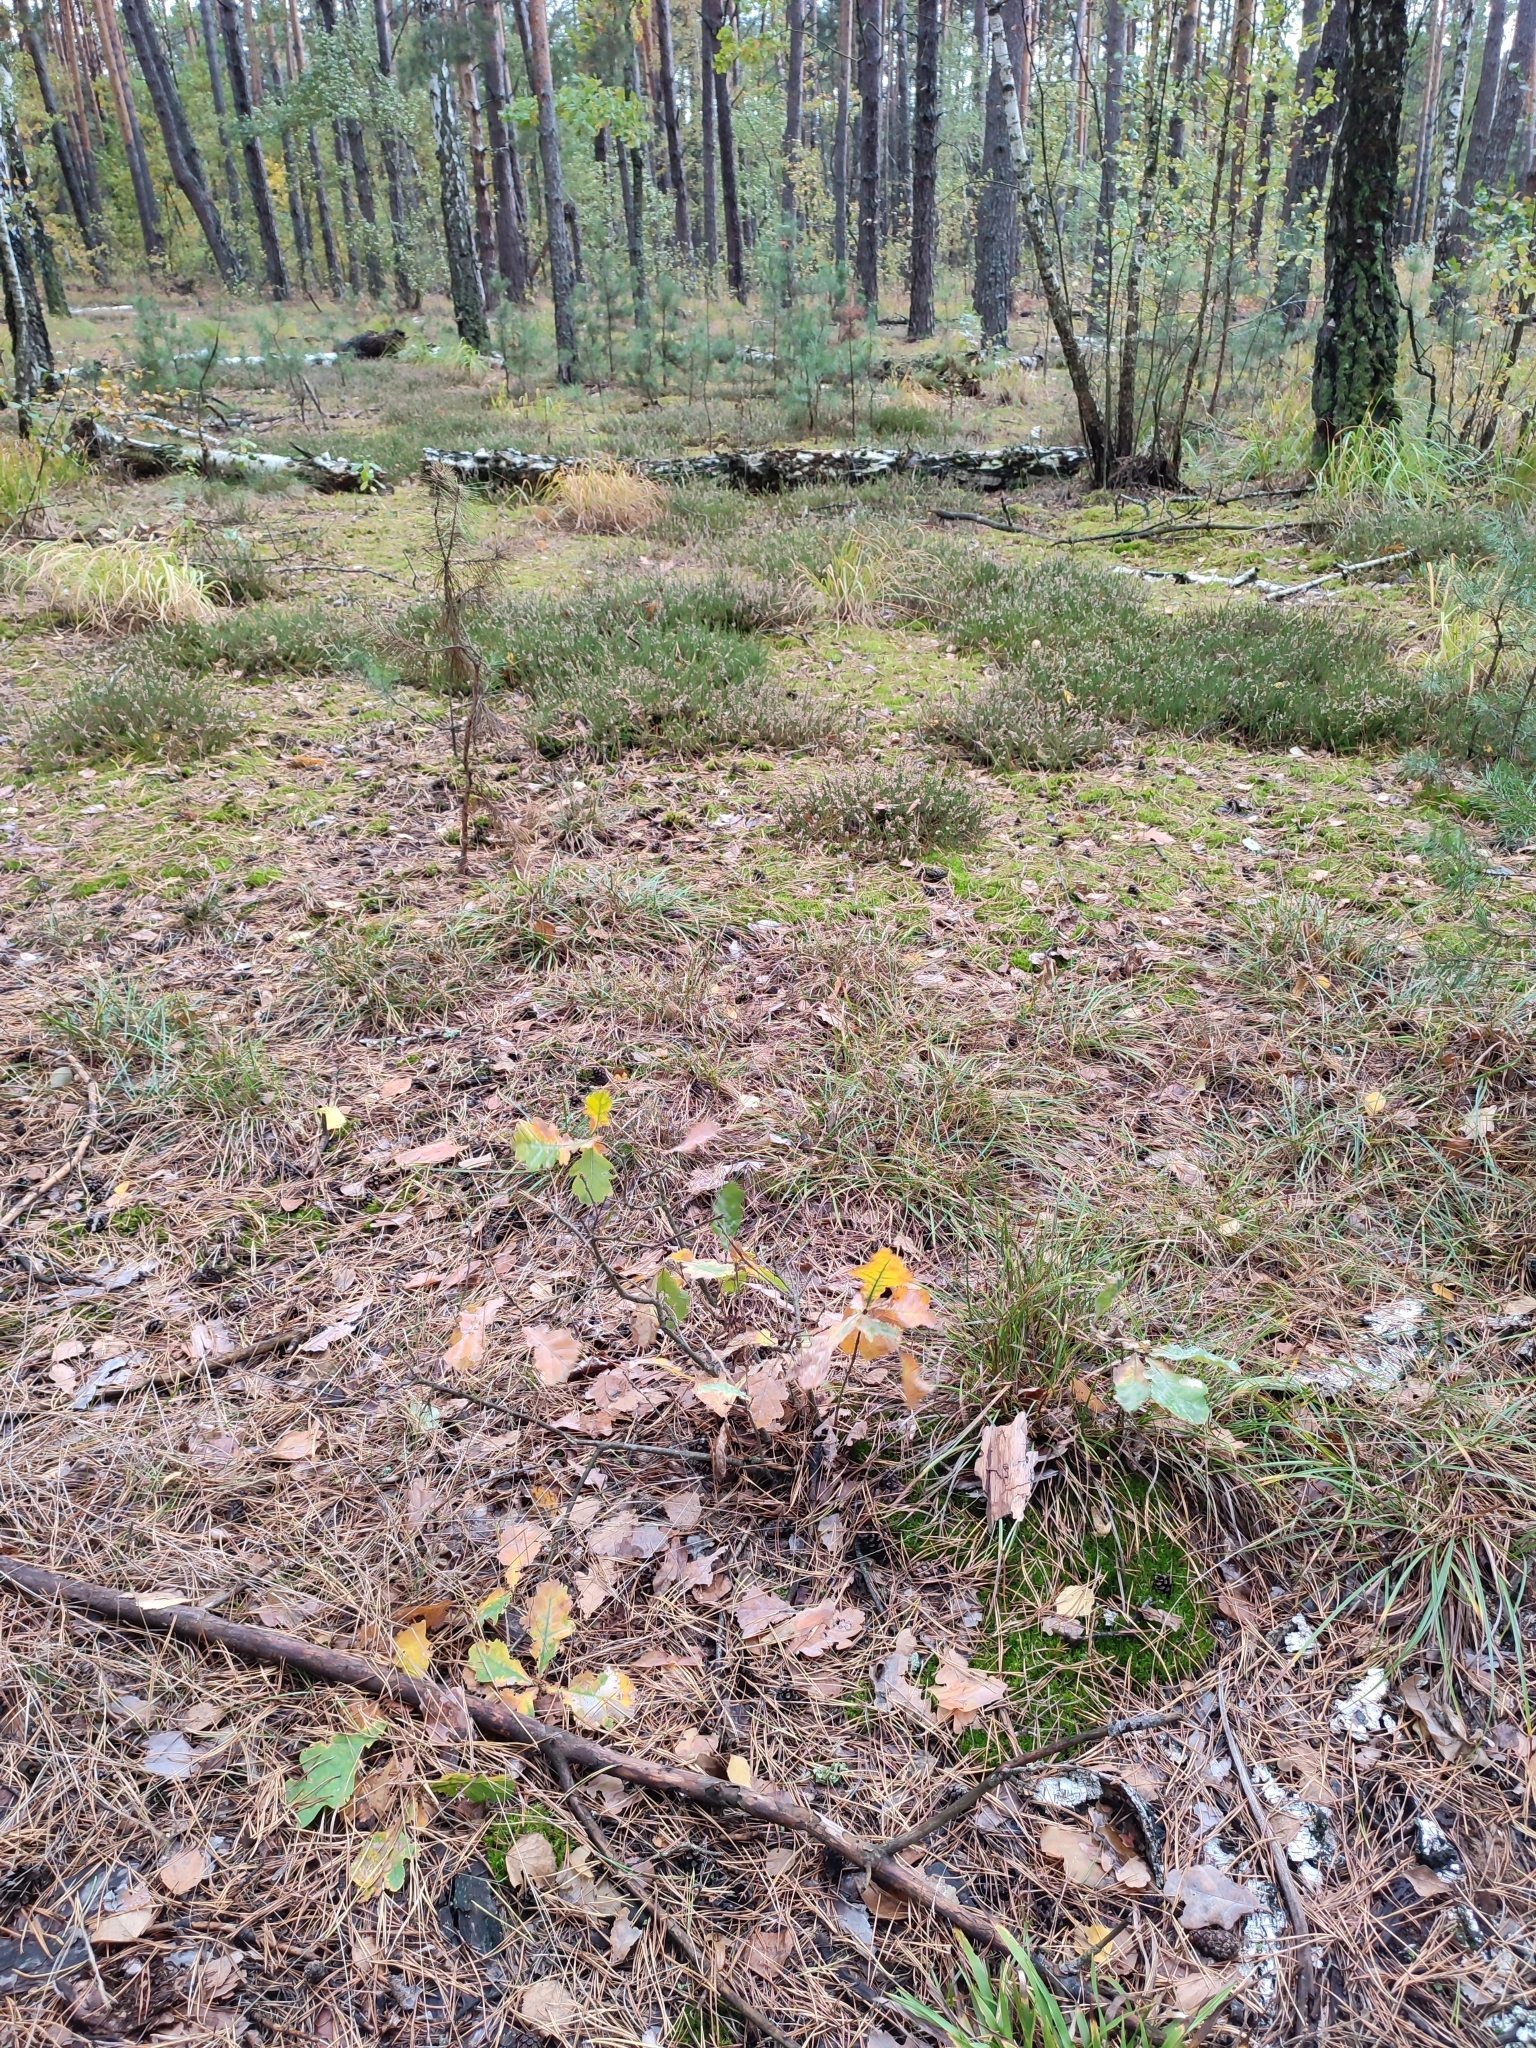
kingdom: Plantae
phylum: Tracheophyta
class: Magnoliopsida
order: Fagales
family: Fagaceae
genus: Quercus
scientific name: Quercus robur
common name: Pedunculate oak
